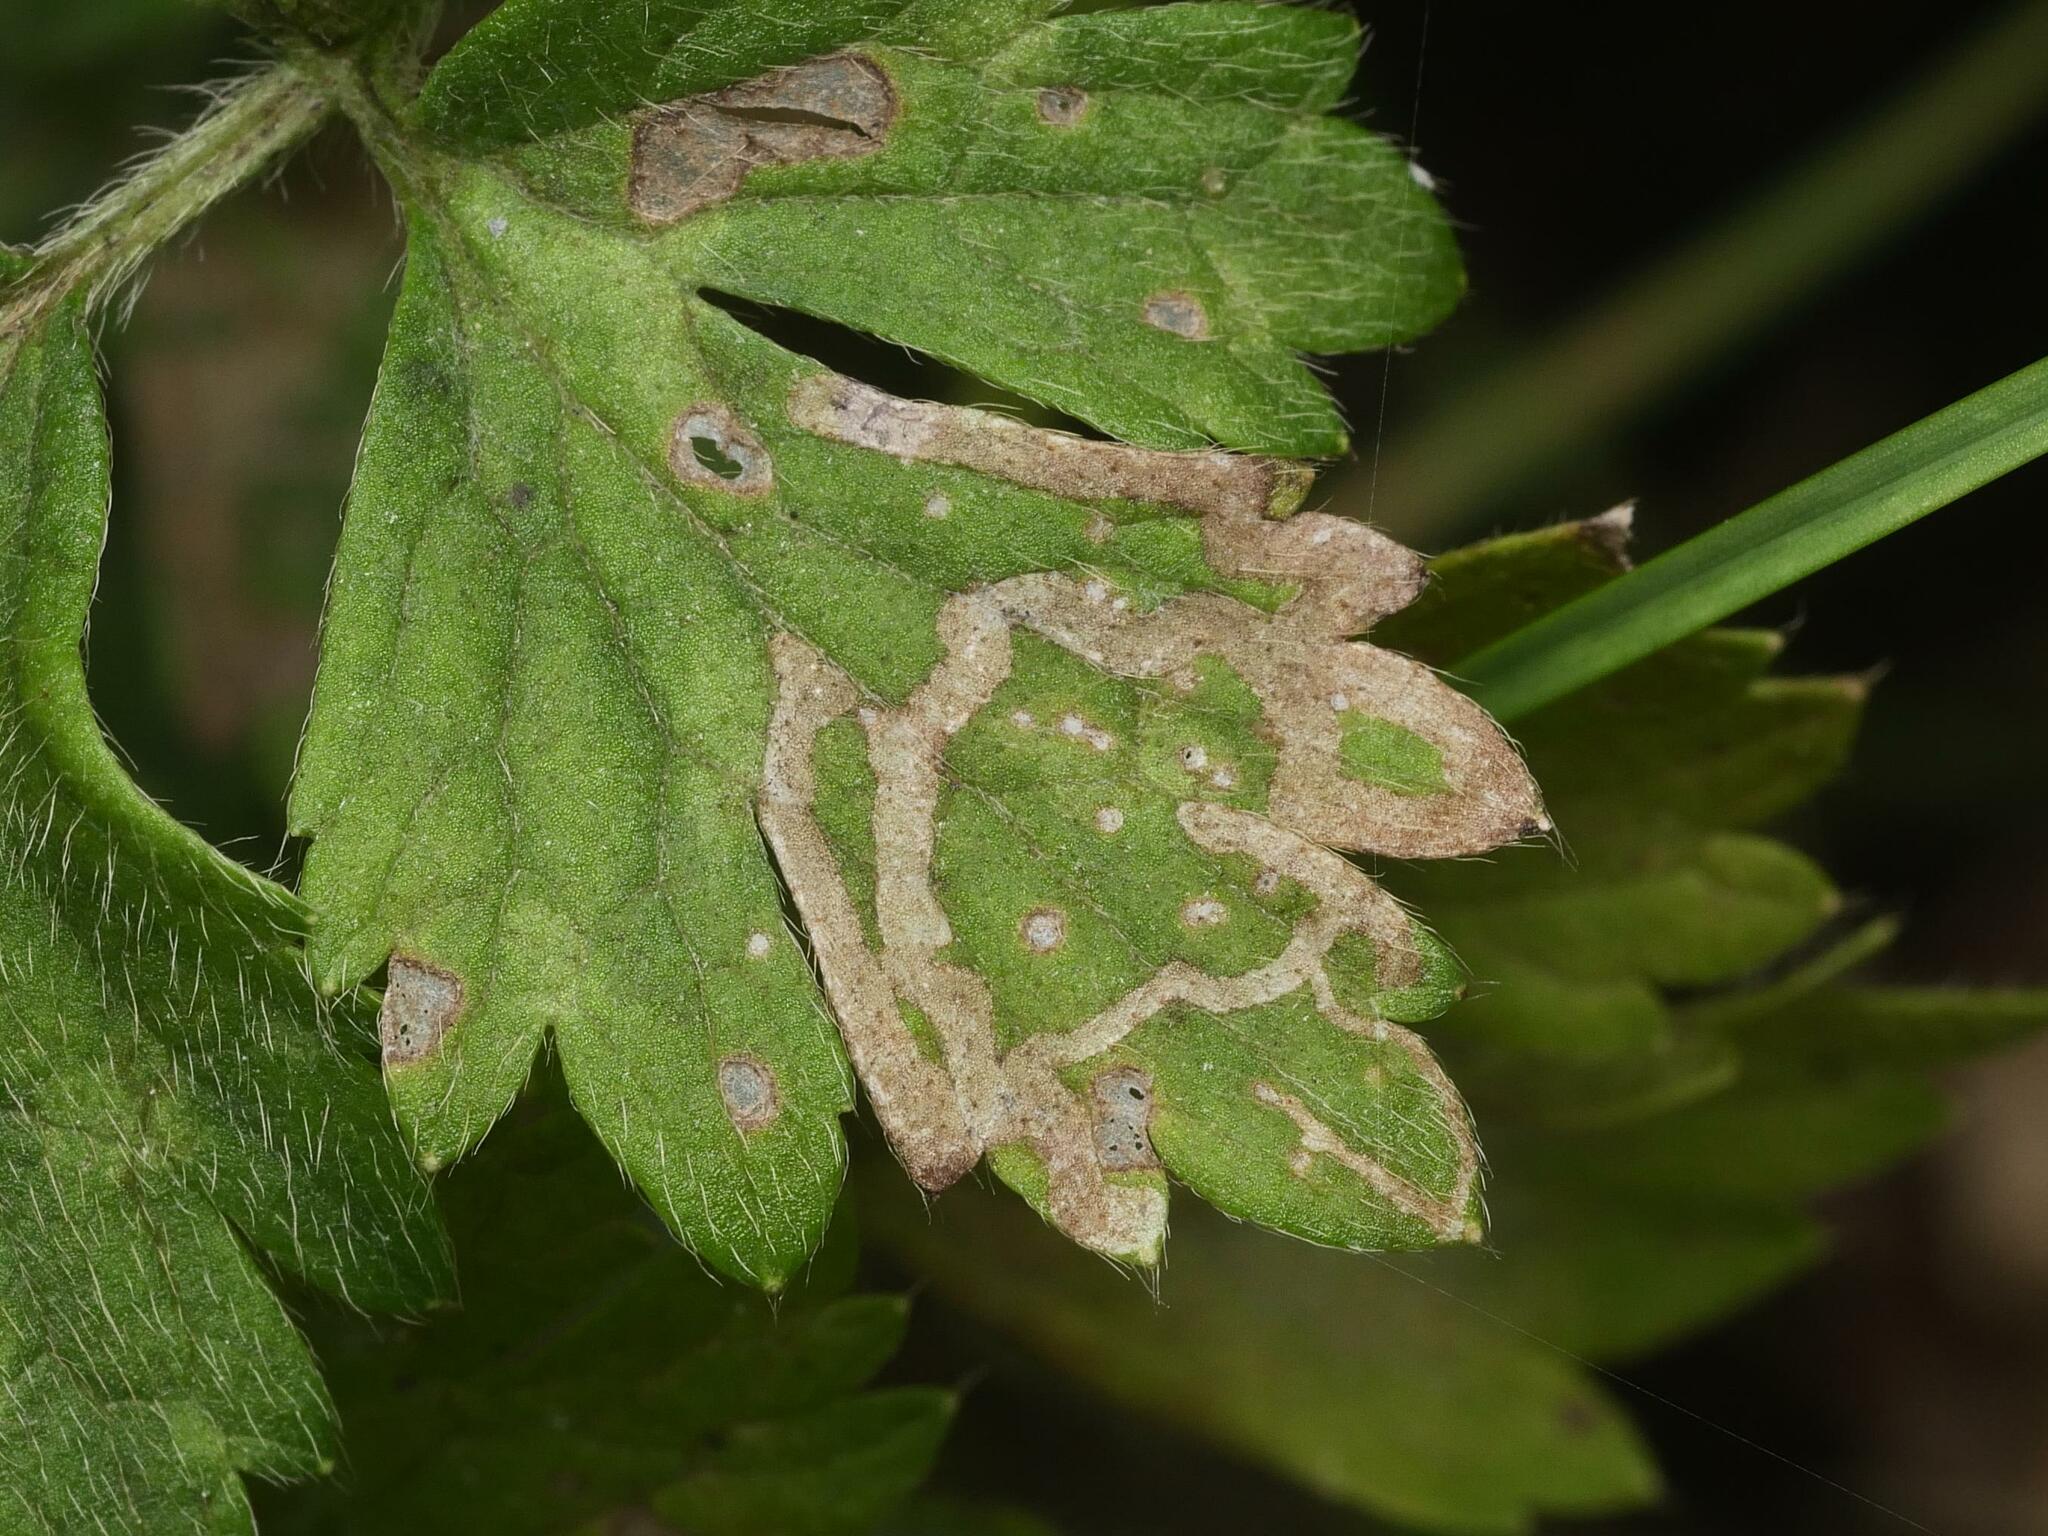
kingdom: Animalia
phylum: Arthropoda
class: Insecta
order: Diptera
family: Agromyzidae
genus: Phytomyza
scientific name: Phytomyza ranunculi
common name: Leaf-miner fly
